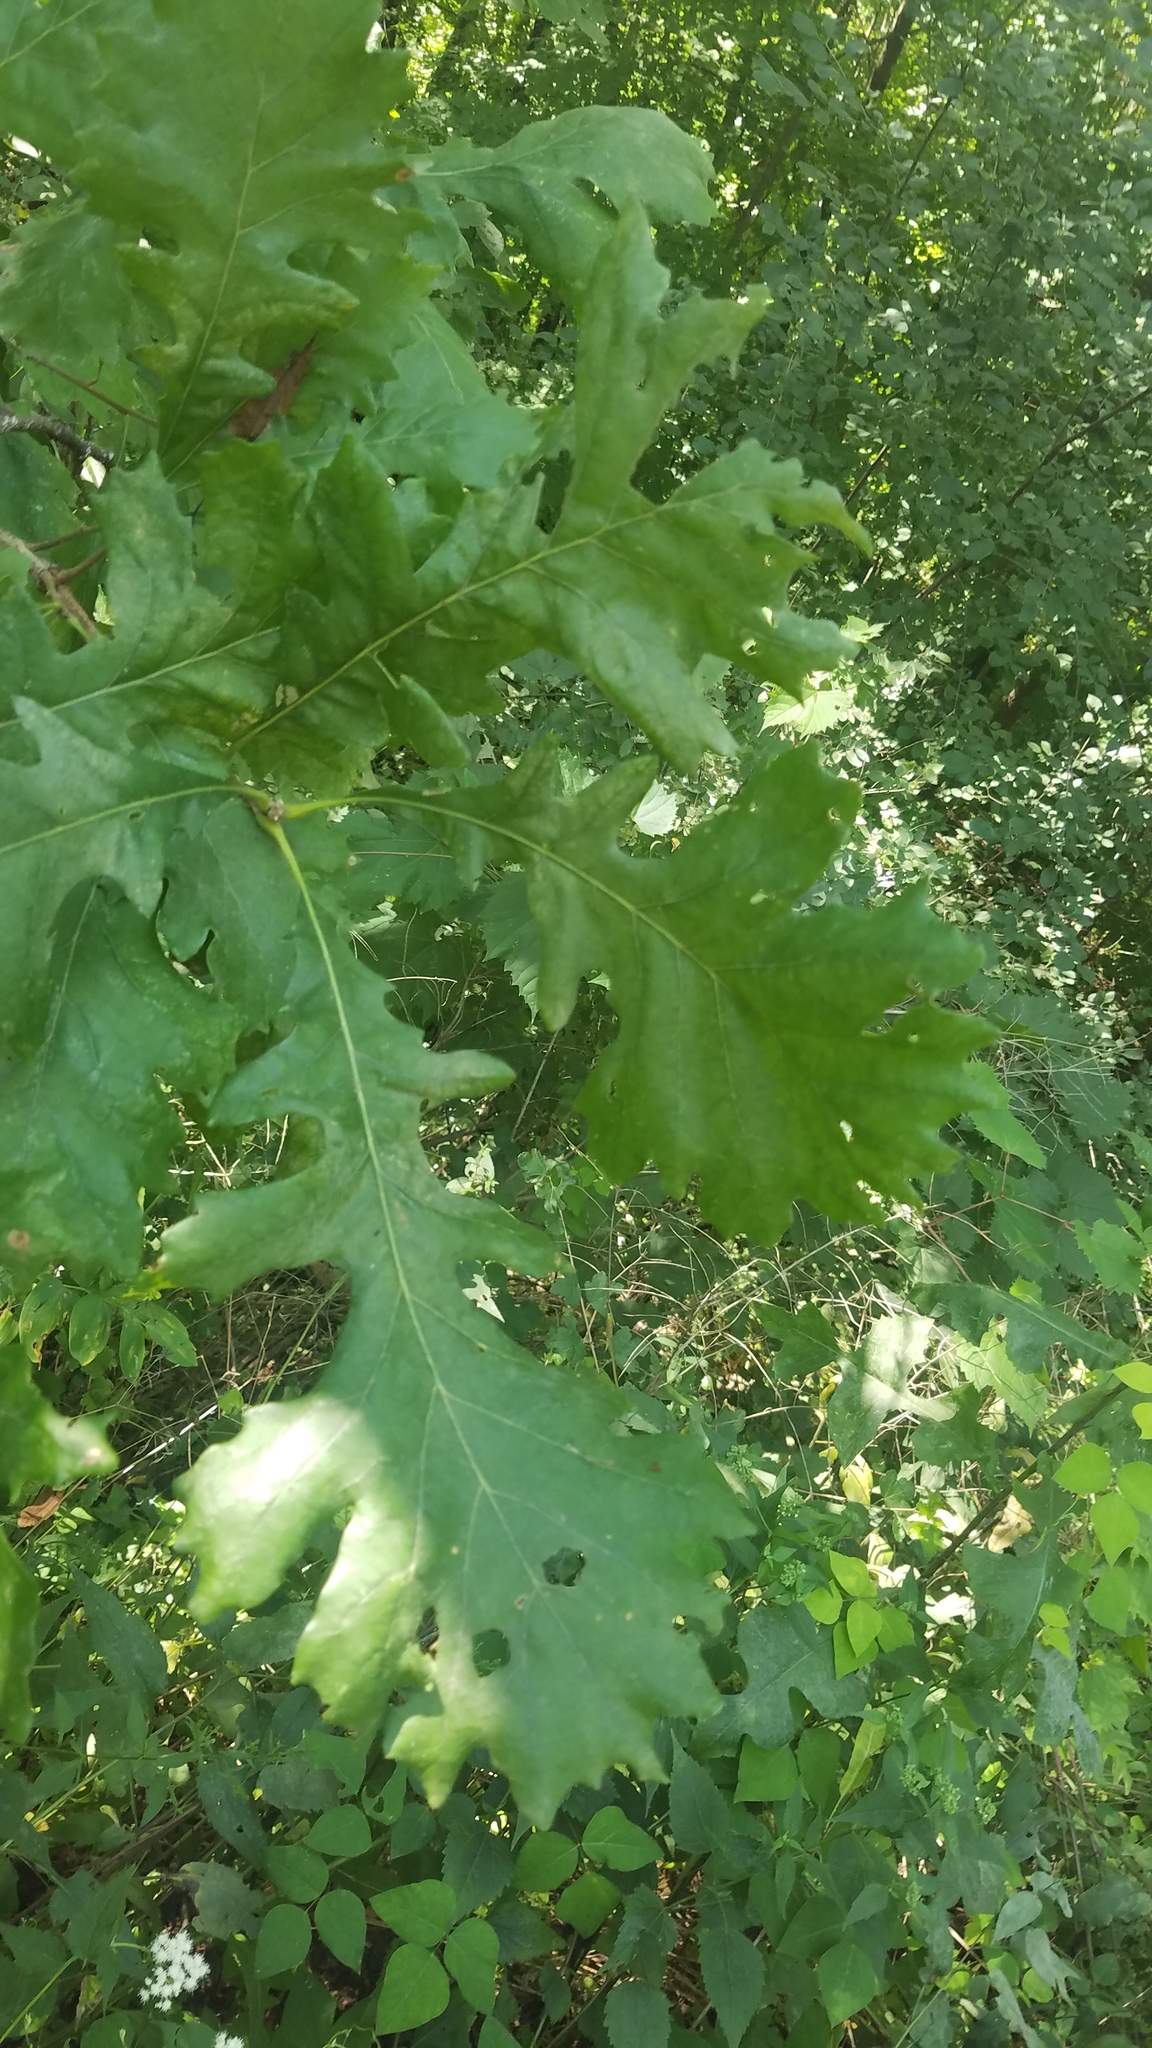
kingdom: Plantae
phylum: Tracheophyta
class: Magnoliopsida
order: Fagales
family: Fagaceae
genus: Quercus
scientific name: Quercus macrocarpa
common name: Bur oak
